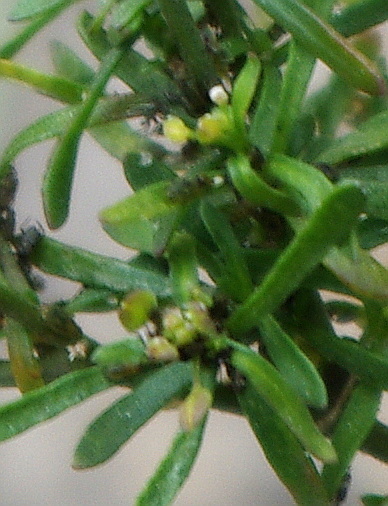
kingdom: Plantae
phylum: Tracheophyta
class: Magnoliopsida
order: Brassicales
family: Brassicaceae
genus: Lepidium
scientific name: Lepidium ruderale
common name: Narrow-leaved pepperwort
